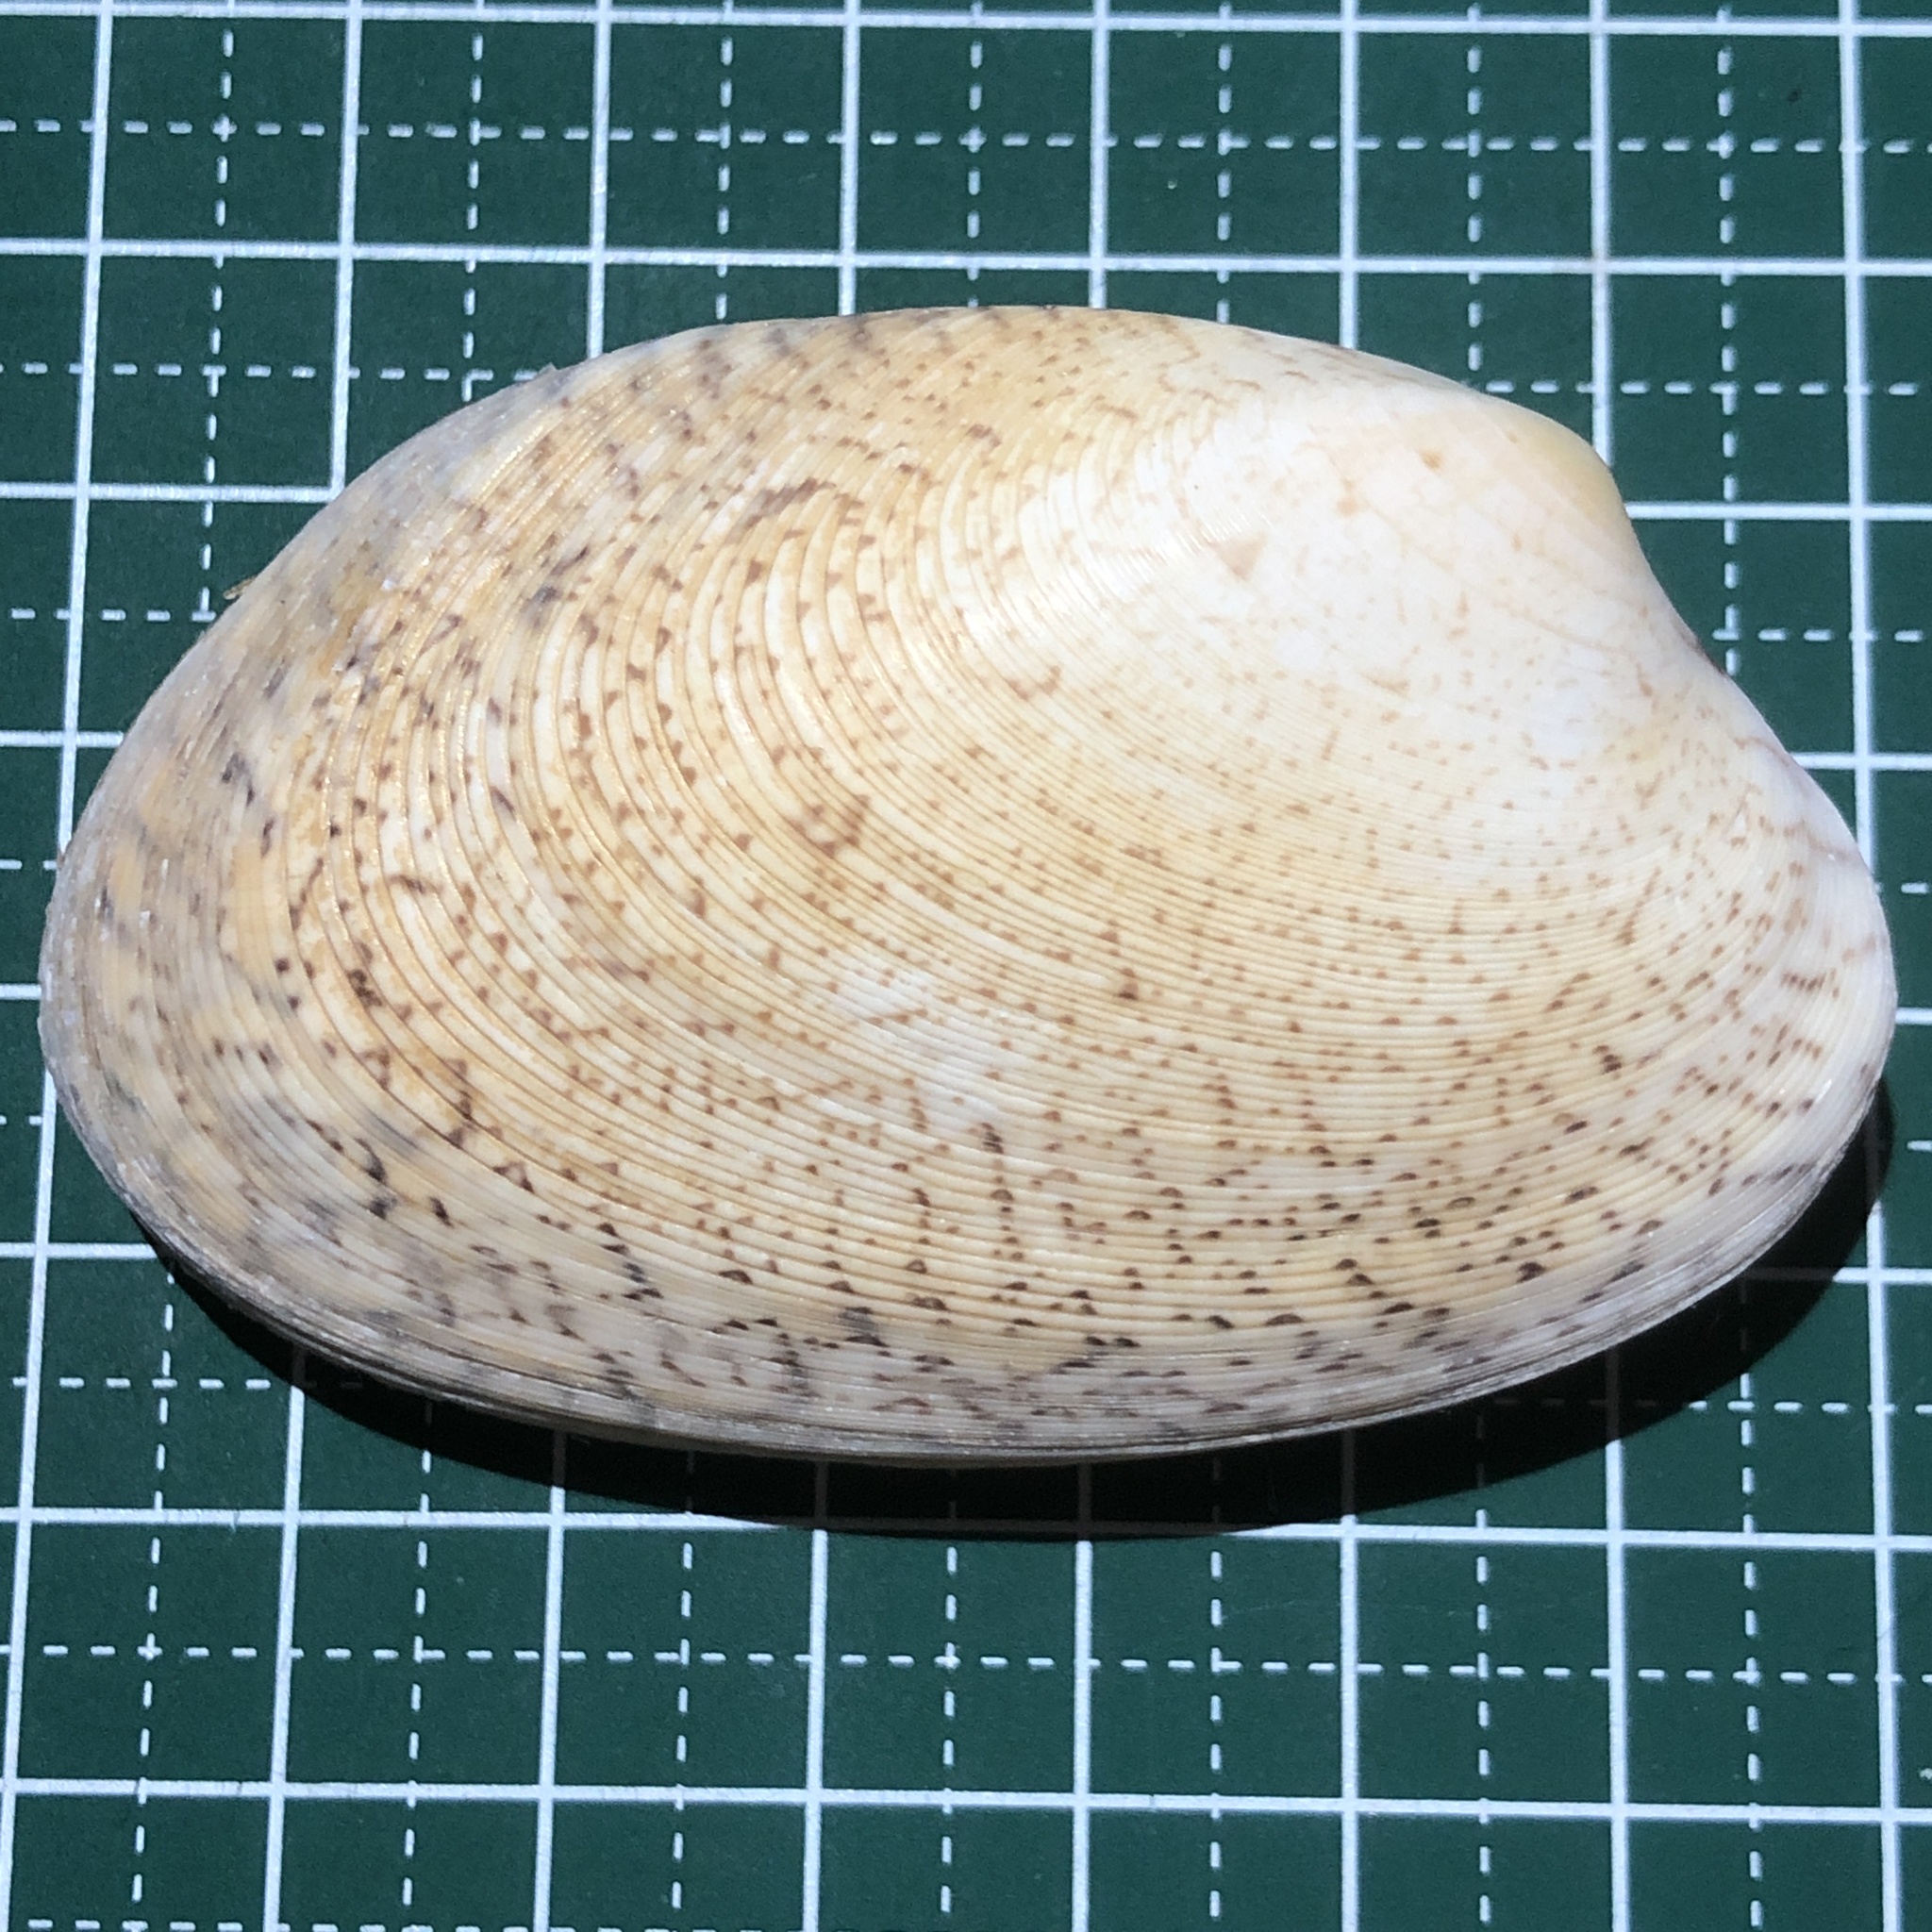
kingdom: Animalia
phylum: Mollusca
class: Bivalvia
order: Venerida
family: Veneridae
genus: Tapes
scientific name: Tapes literatus
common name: Lettered carpet shell
